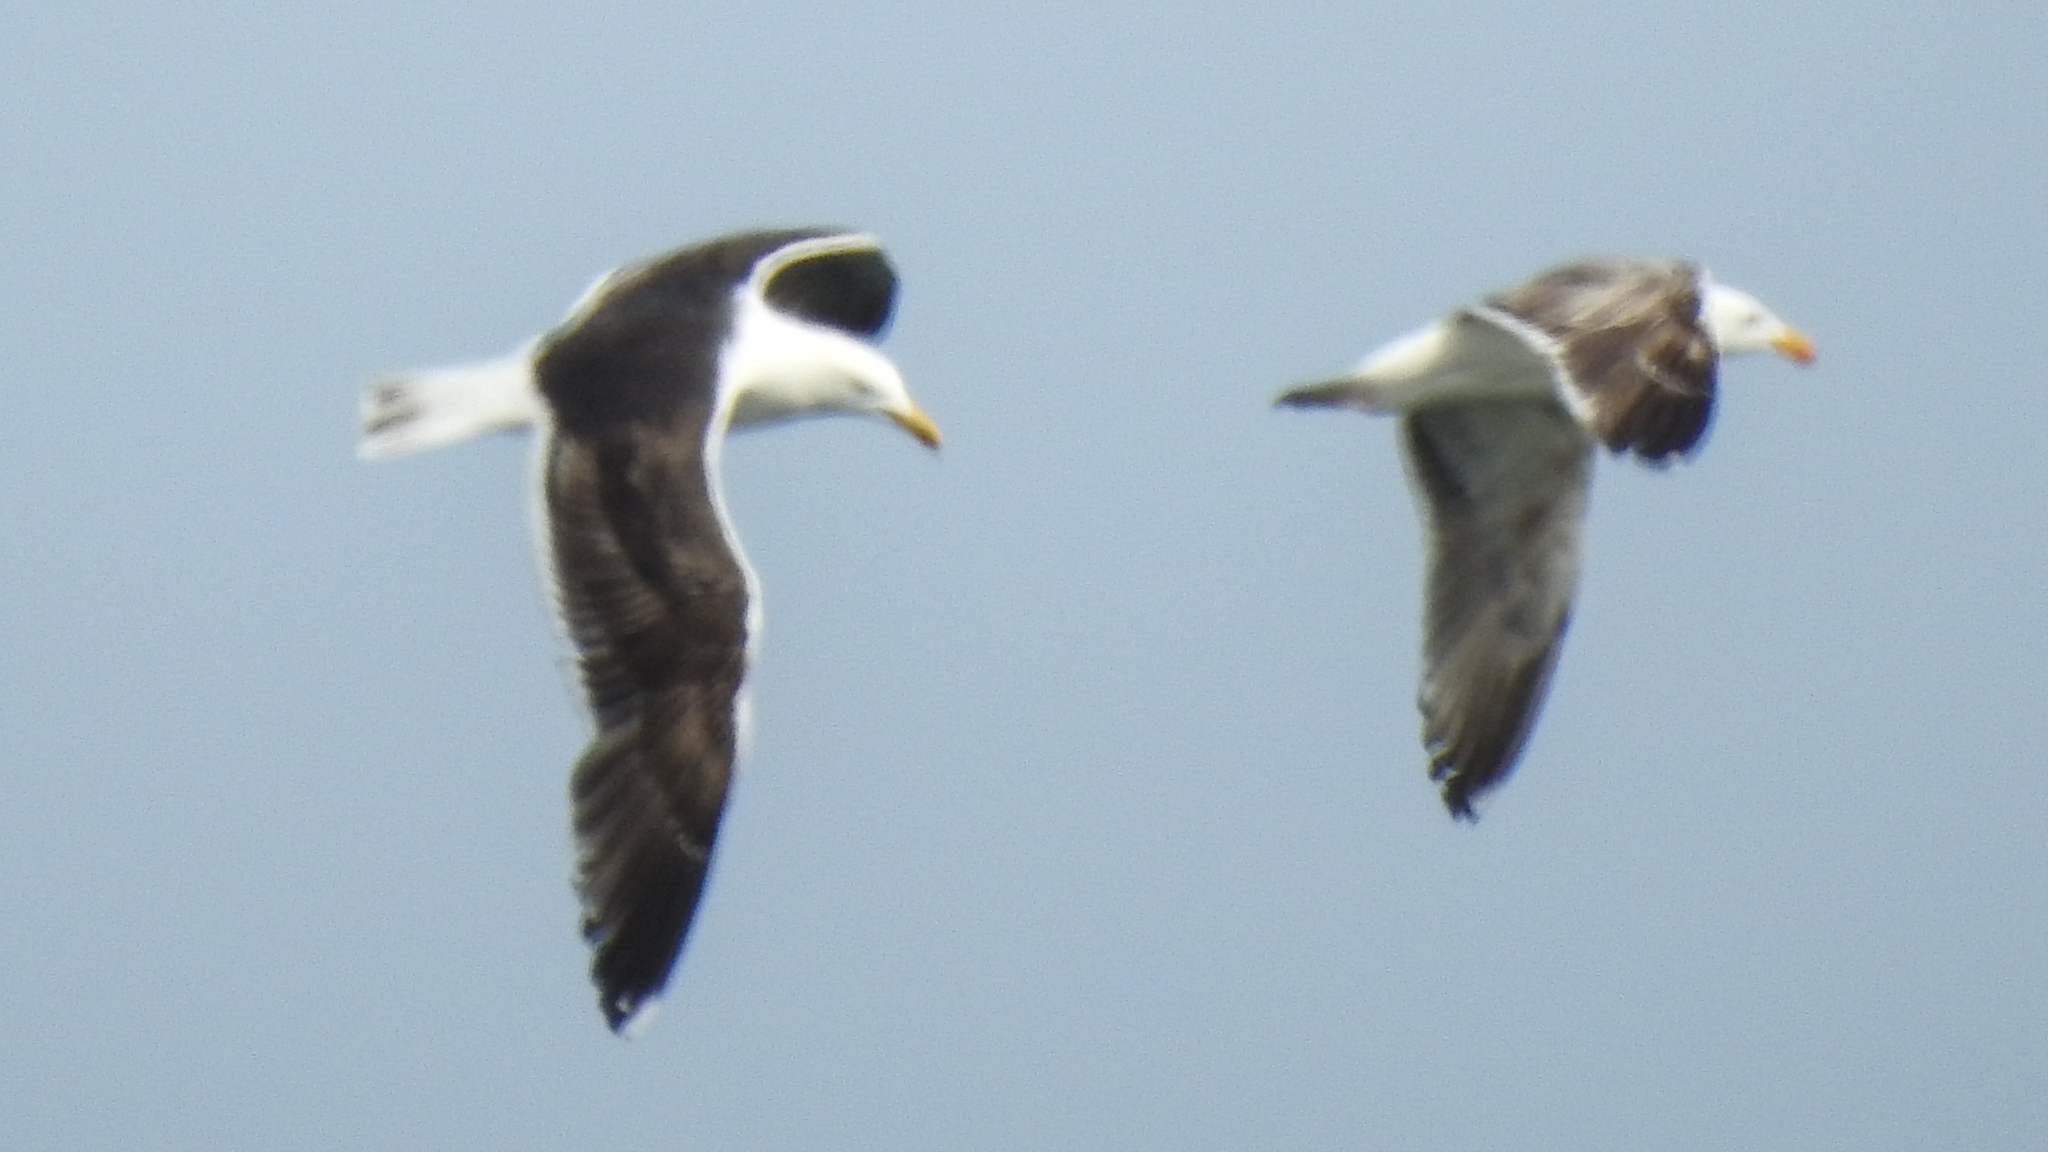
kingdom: Animalia
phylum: Chordata
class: Aves
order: Charadriiformes
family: Laridae
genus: Larus
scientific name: Larus marinus
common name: Great black-backed gull
